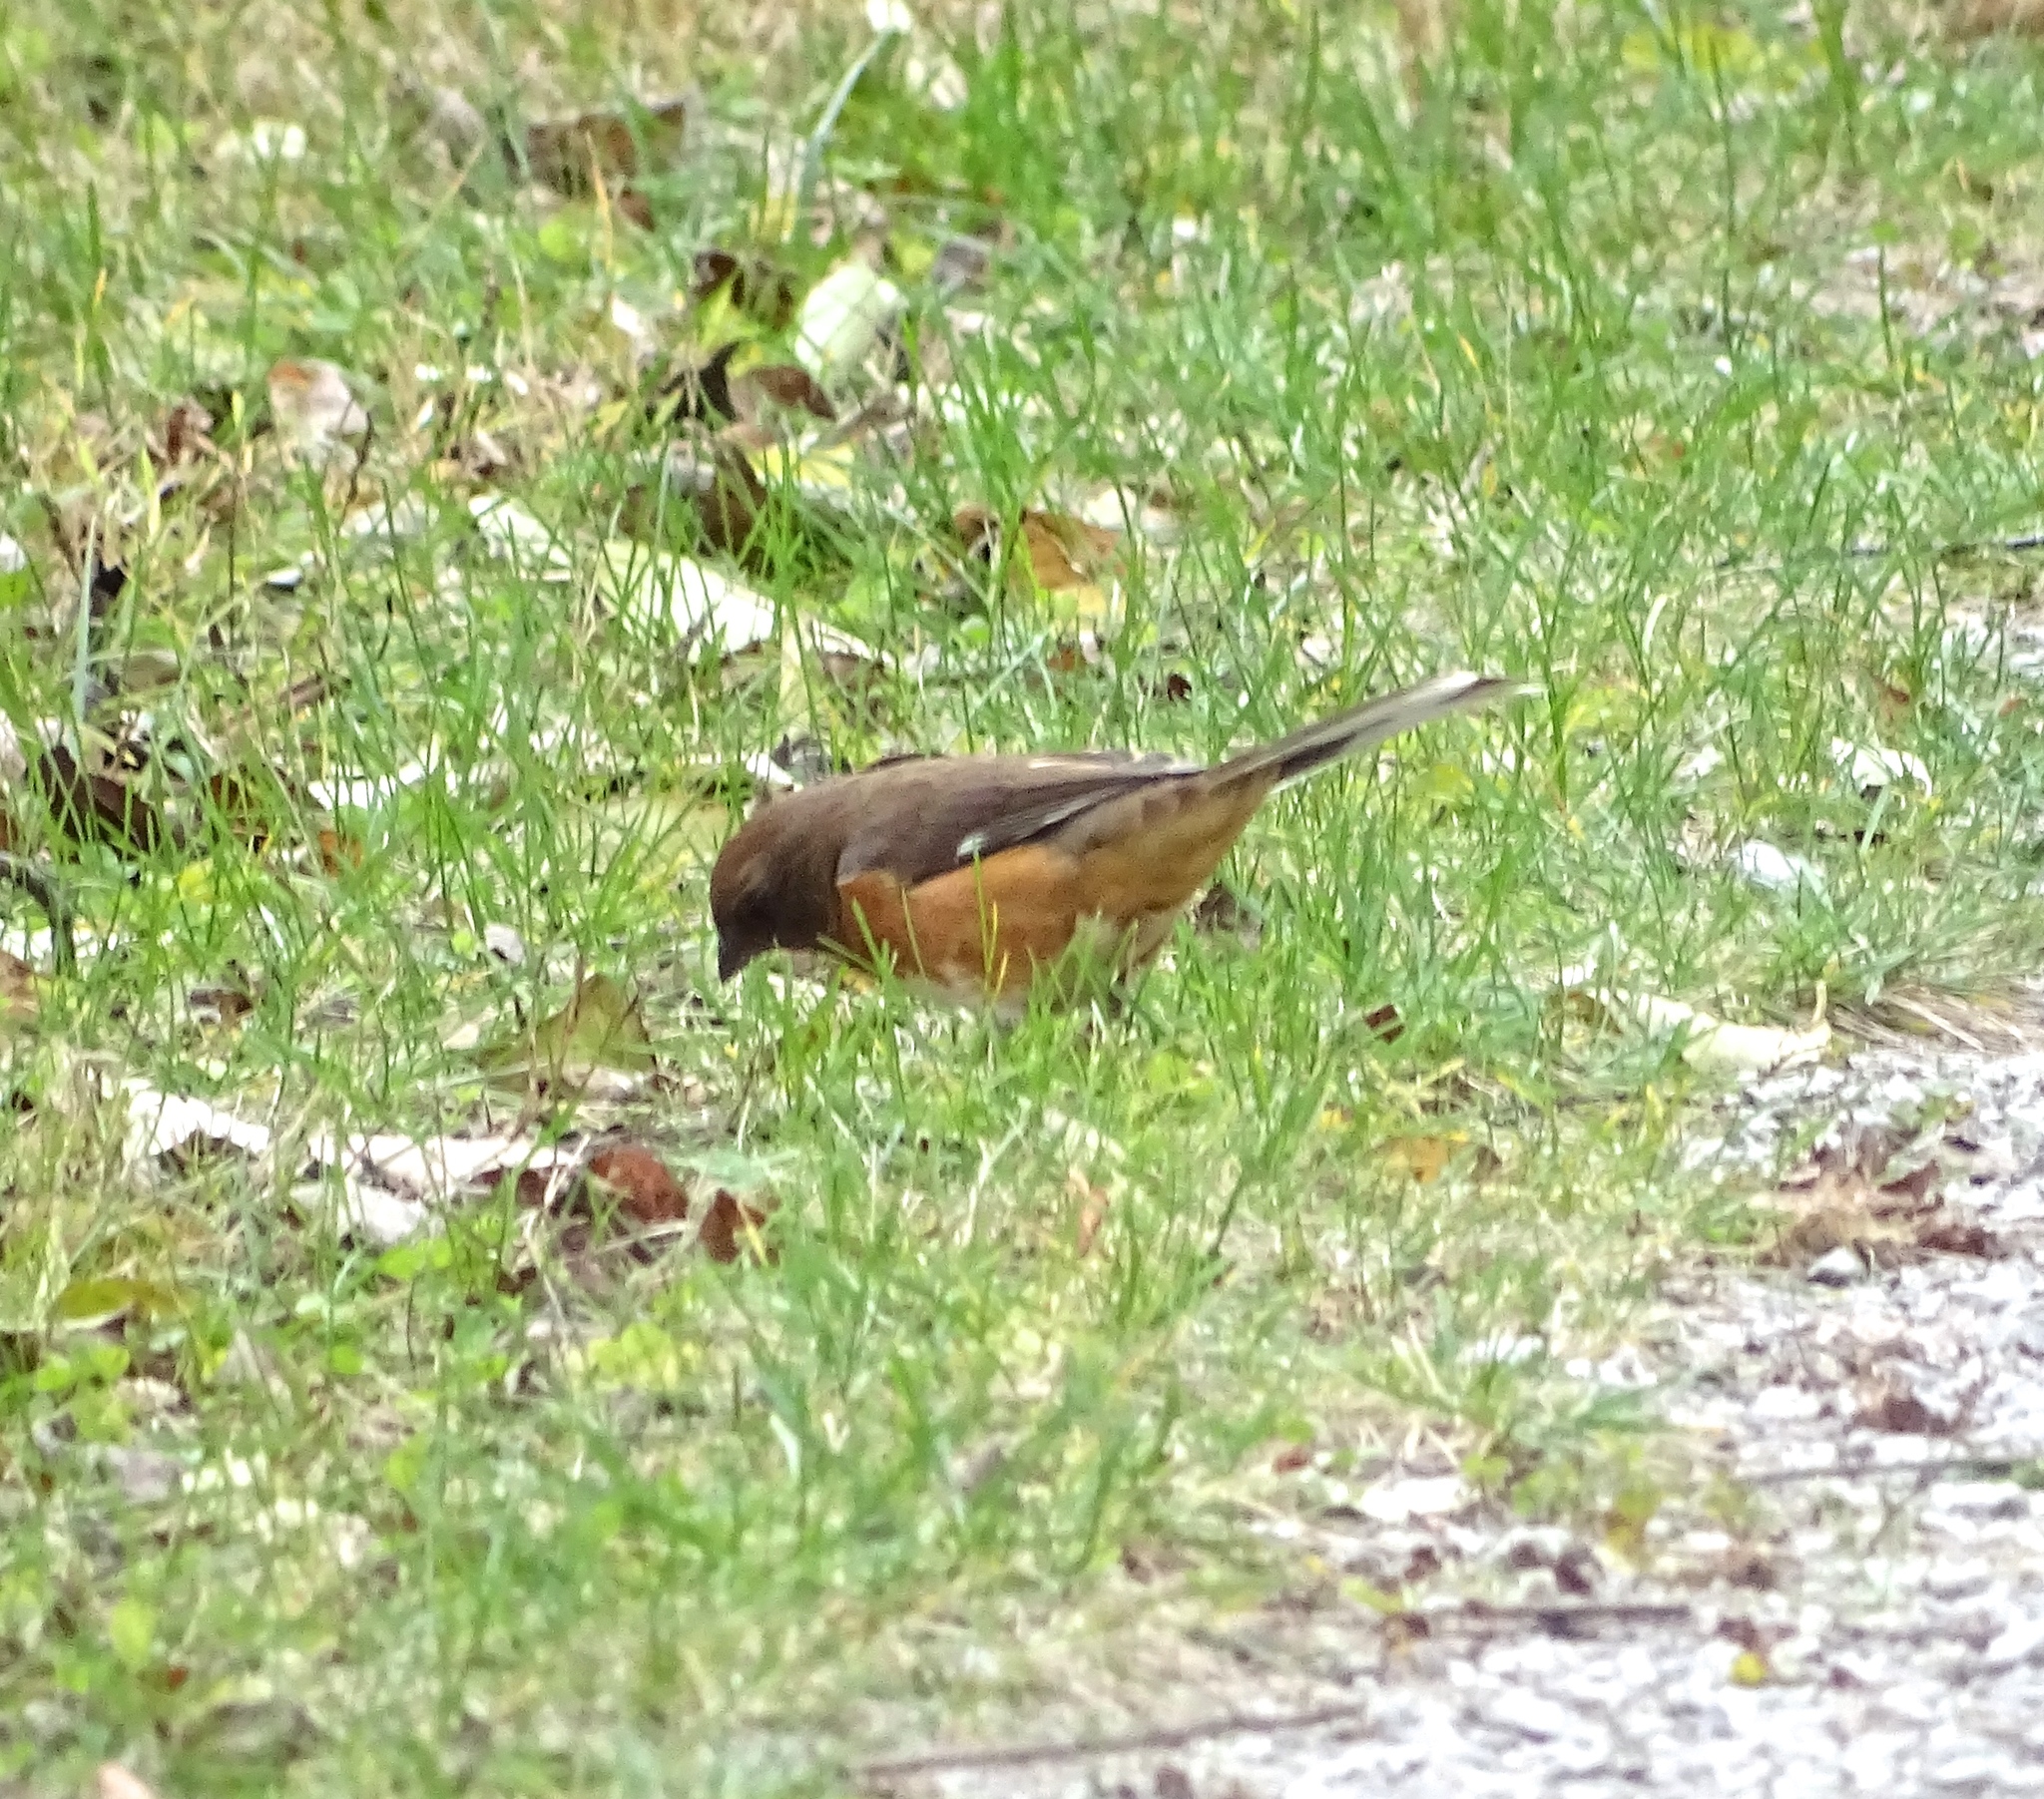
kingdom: Animalia
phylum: Chordata
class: Aves
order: Passeriformes
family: Passerellidae
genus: Pipilo
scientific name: Pipilo erythrophthalmus
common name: Eastern towhee
